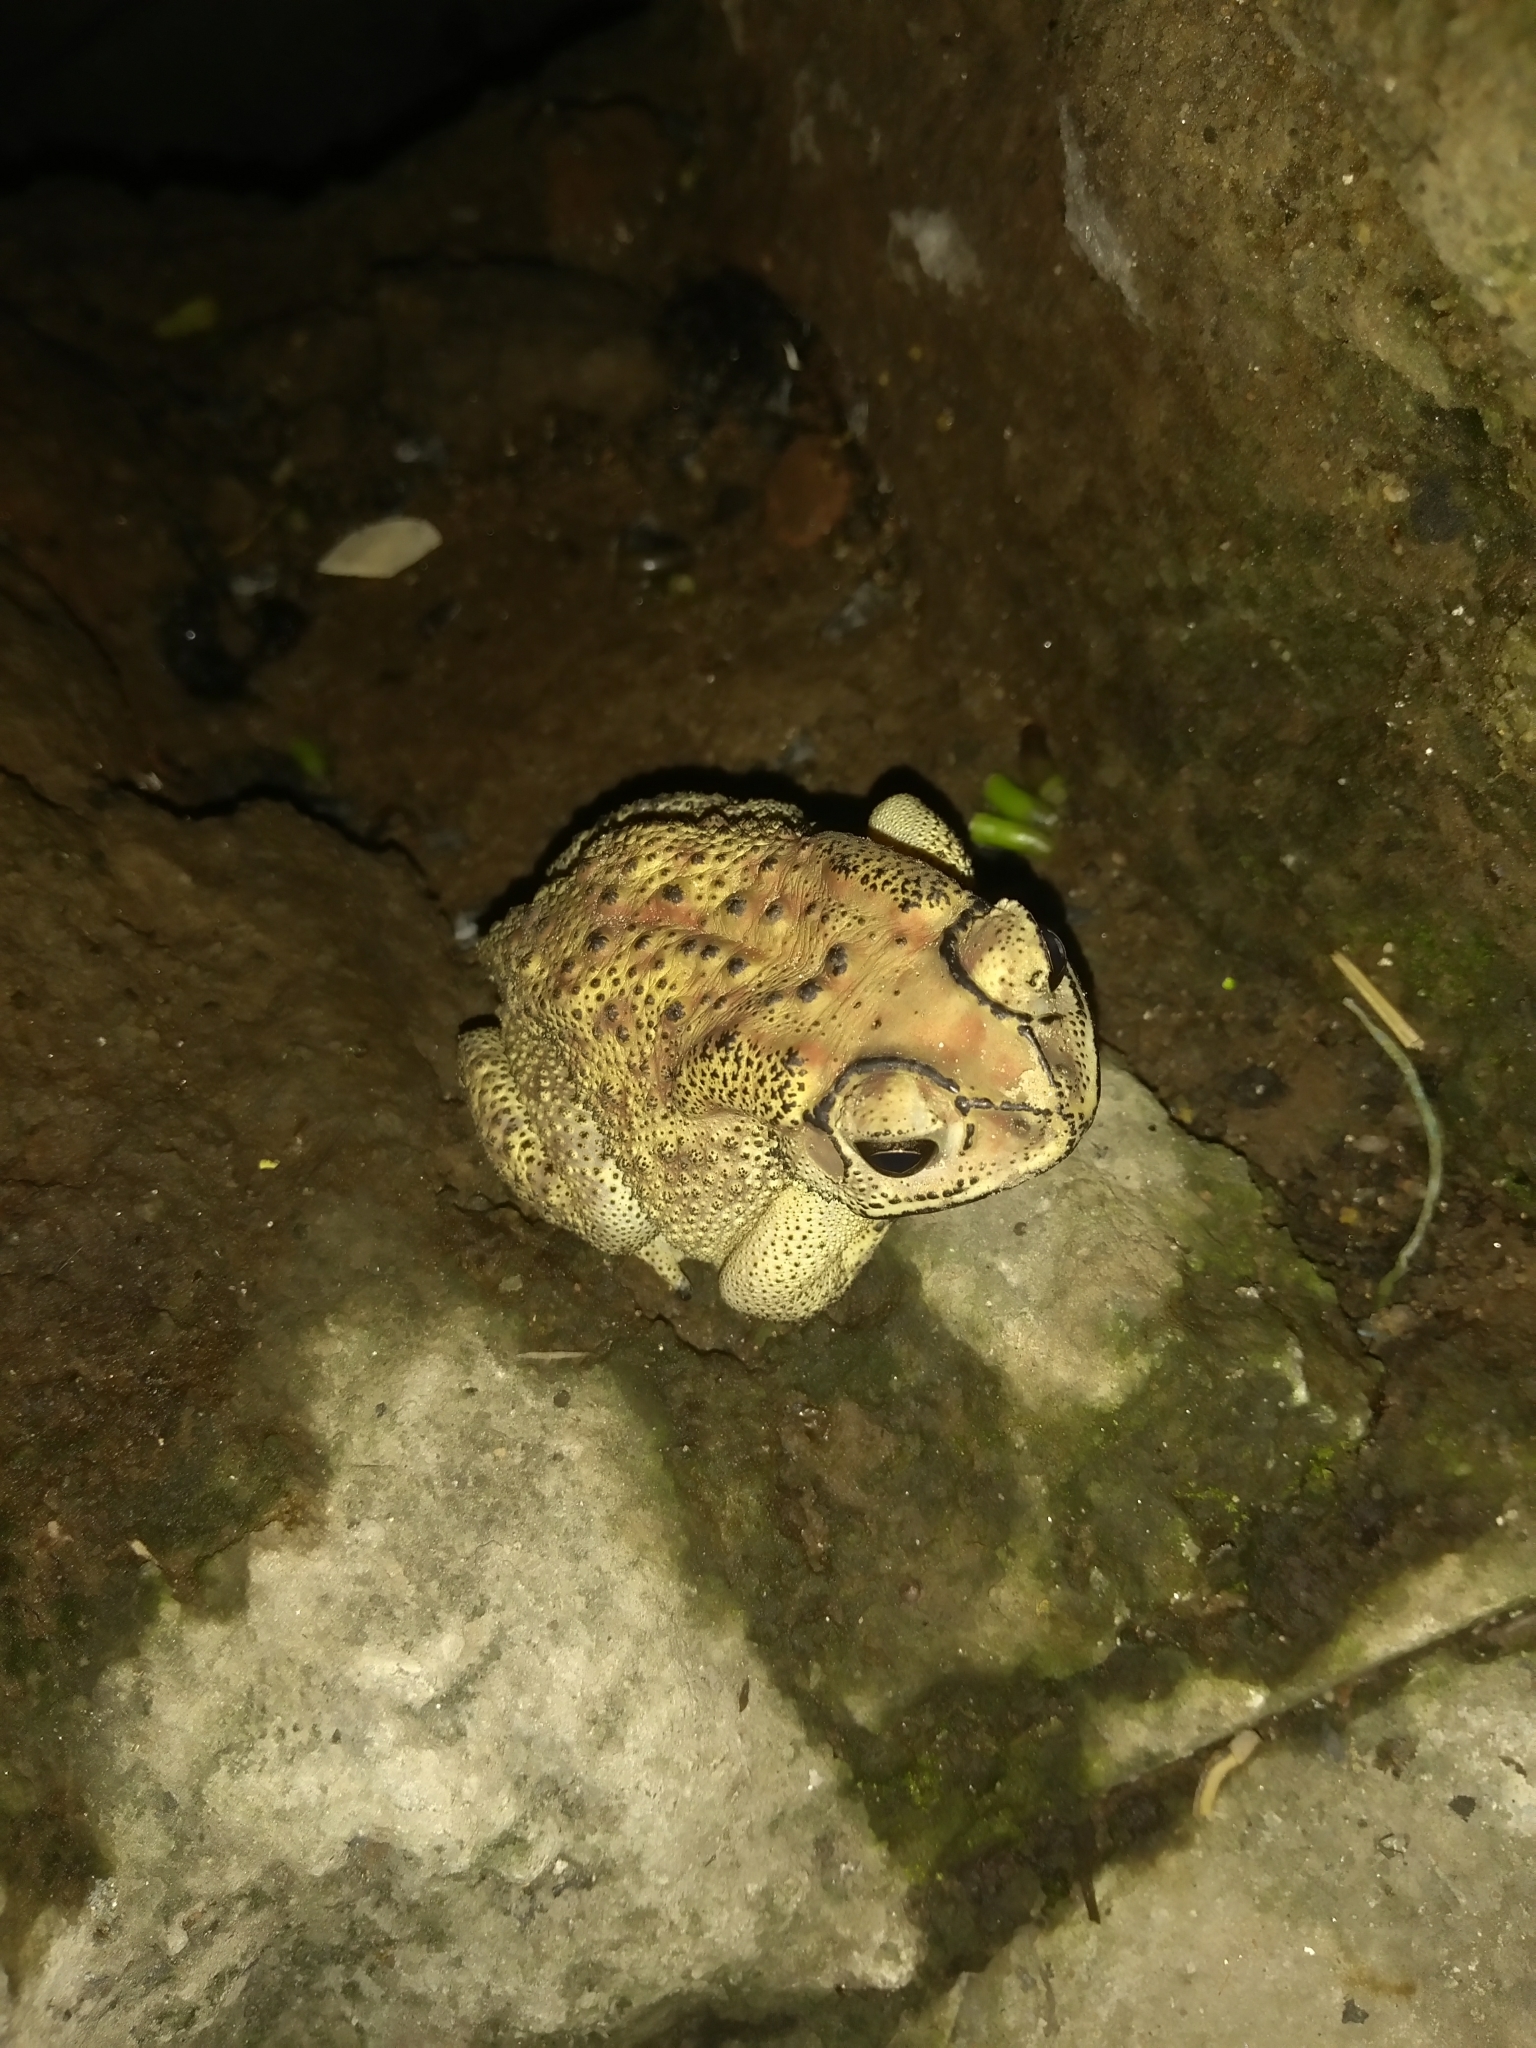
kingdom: Animalia
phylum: Chordata
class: Amphibia
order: Anura
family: Bufonidae
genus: Duttaphrynus
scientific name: Duttaphrynus melanostictus
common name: Common sunda toad
